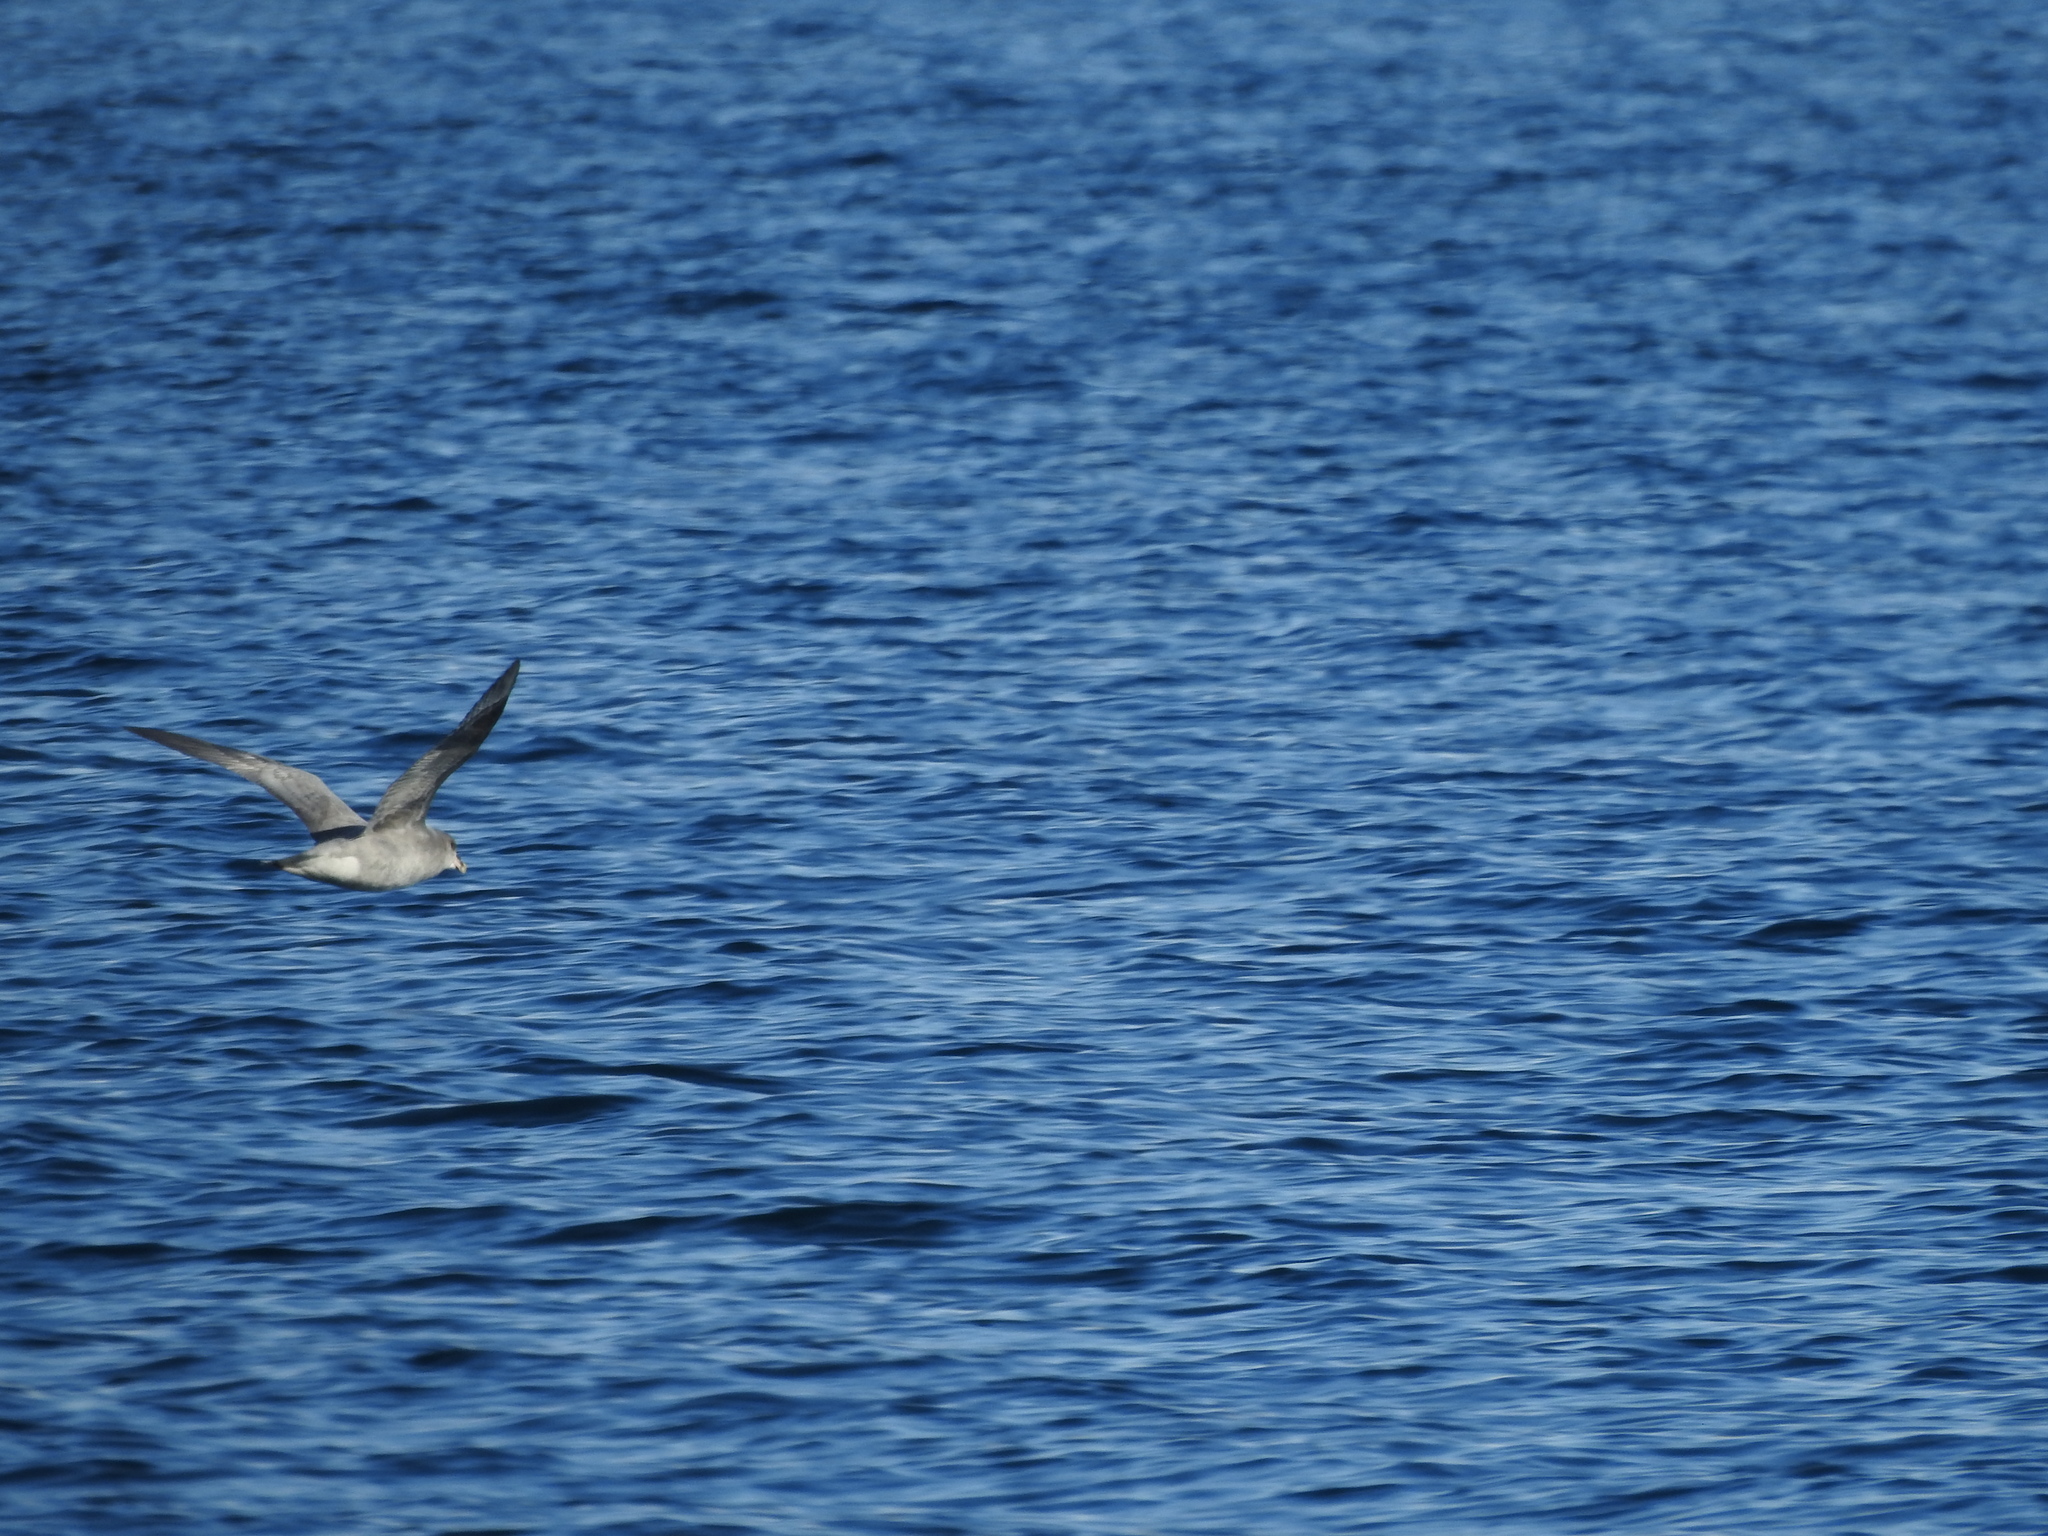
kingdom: Animalia
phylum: Chordata
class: Aves
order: Procellariiformes
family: Procellariidae
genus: Fulmarus
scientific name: Fulmarus glacialis
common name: Northern fulmar
